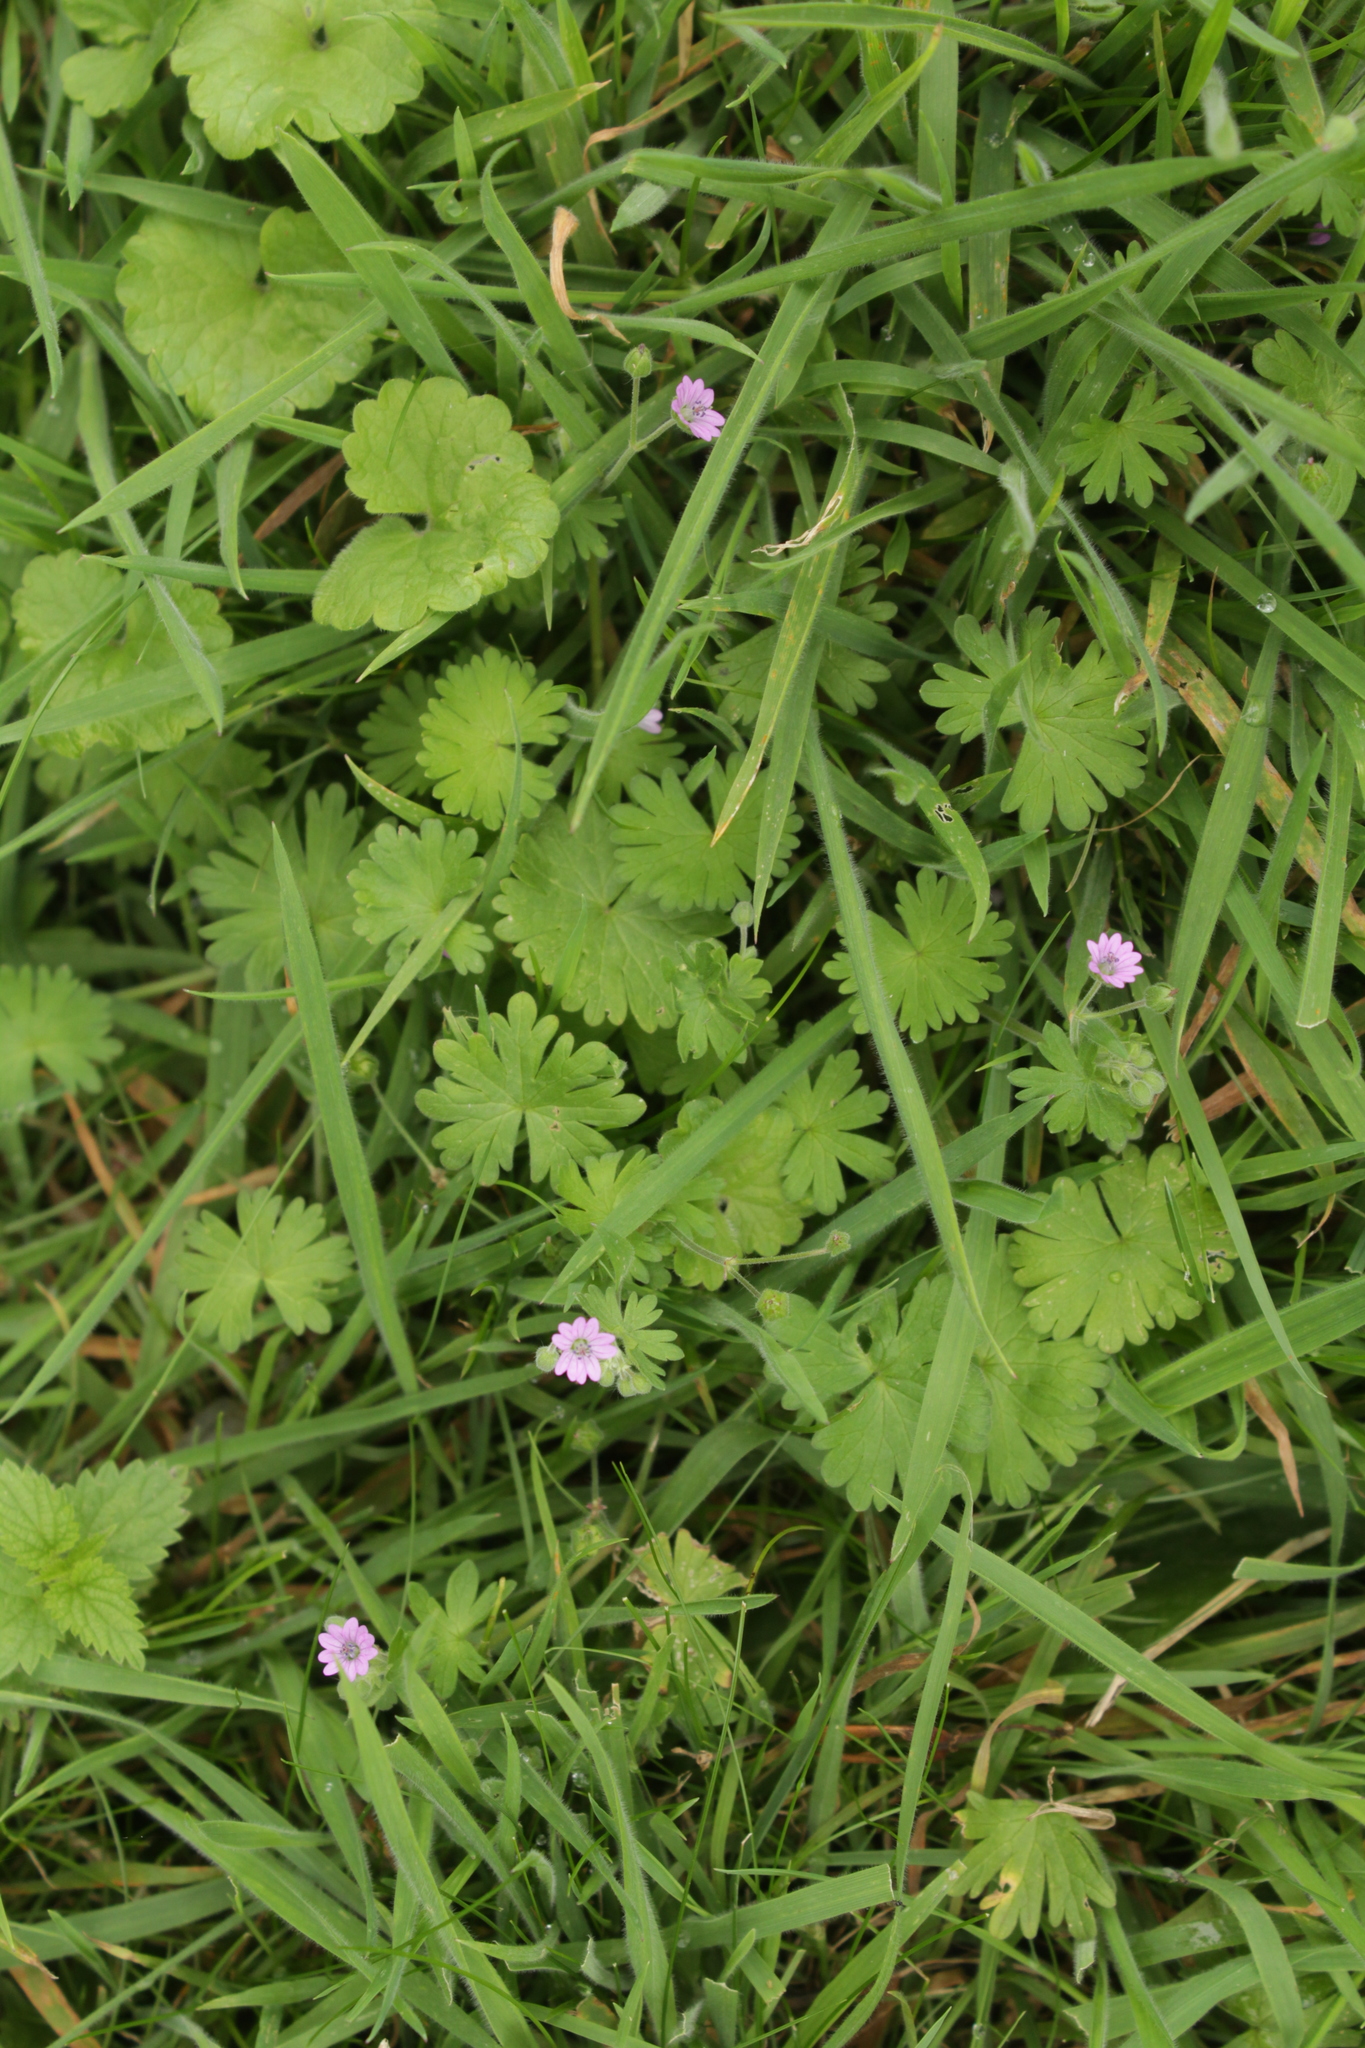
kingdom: Plantae
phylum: Tracheophyta
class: Magnoliopsida
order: Geraniales
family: Geraniaceae
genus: Geranium
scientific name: Geranium molle
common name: Dove's-foot crane's-bill
